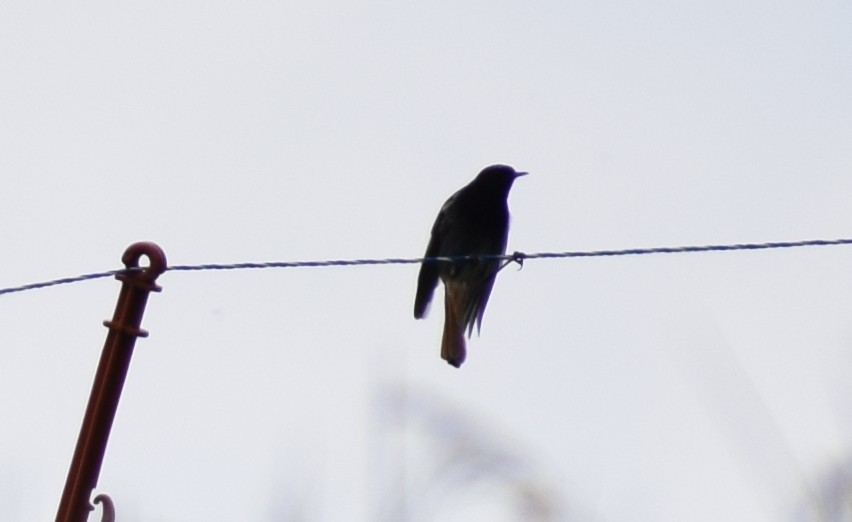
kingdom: Animalia
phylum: Chordata
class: Aves
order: Passeriformes
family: Muscicapidae
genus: Phoenicurus
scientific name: Phoenicurus ochruros
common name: Black redstart
